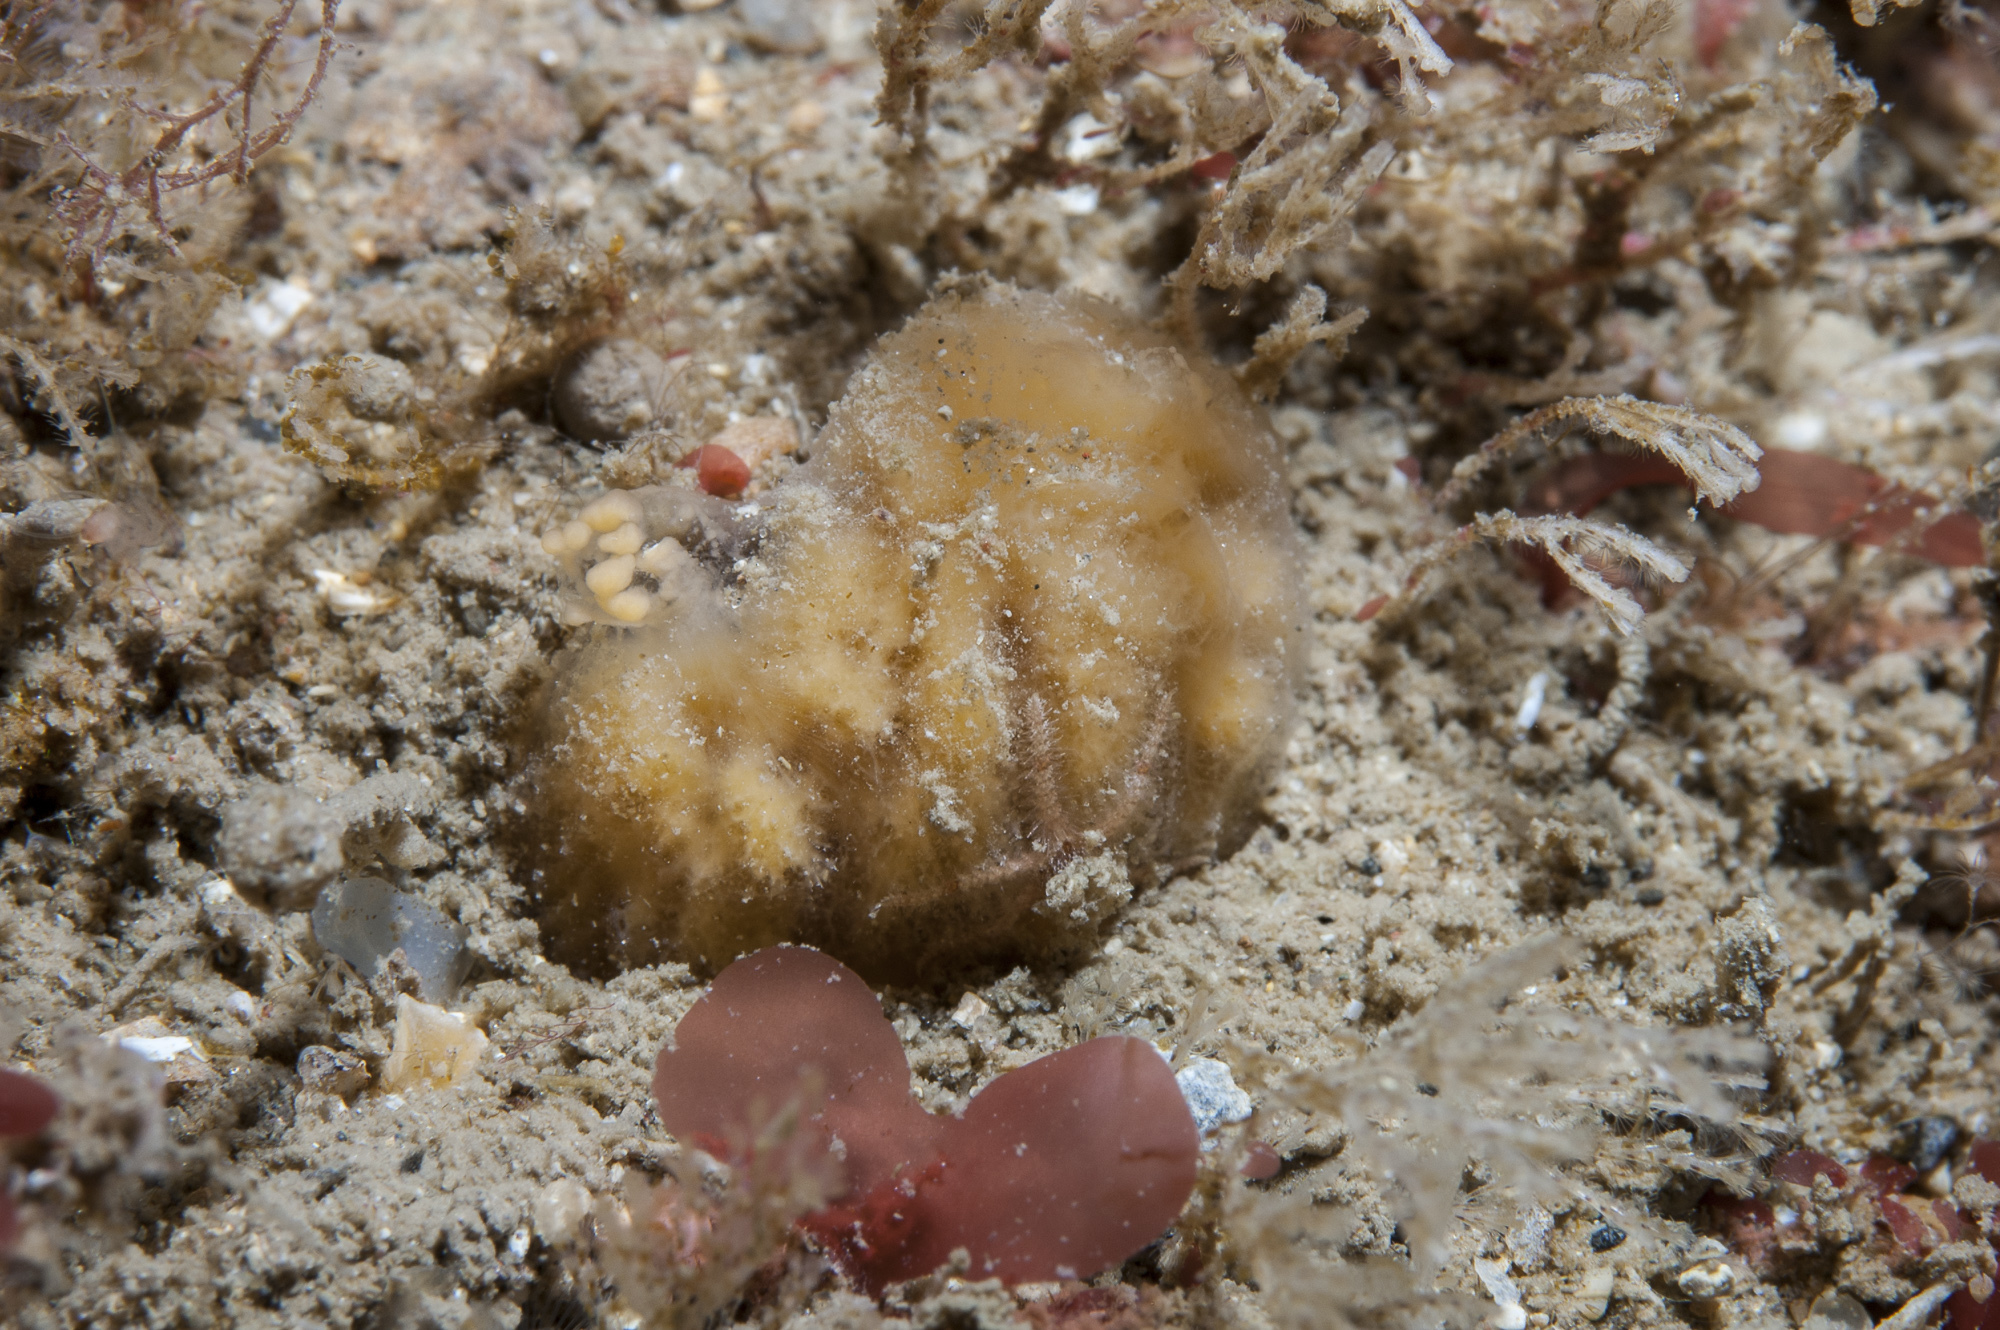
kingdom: Animalia
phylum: Porifera
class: Demospongiae
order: Axinellida
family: Axinellidae
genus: Axinella
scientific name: Axinella parva
